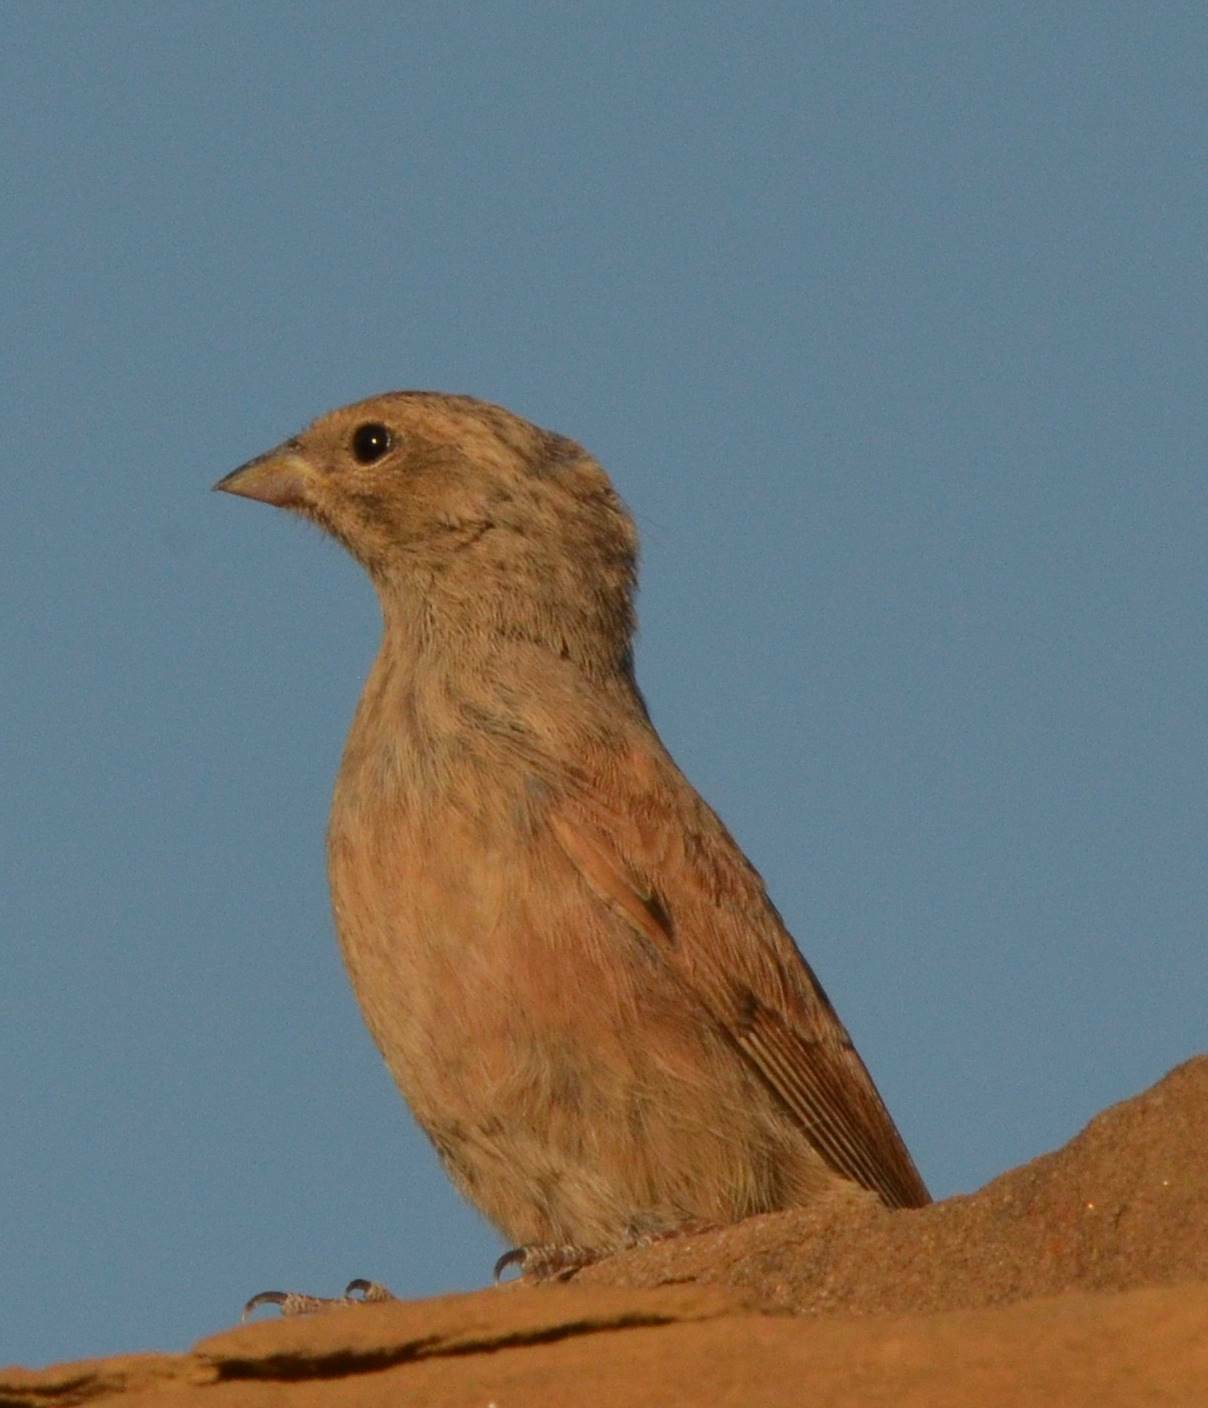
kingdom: Animalia
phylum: Chordata
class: Aves
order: Passeriformes
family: Emberizidae
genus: Emberiza
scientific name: Emberiza sahari
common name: House bunting
